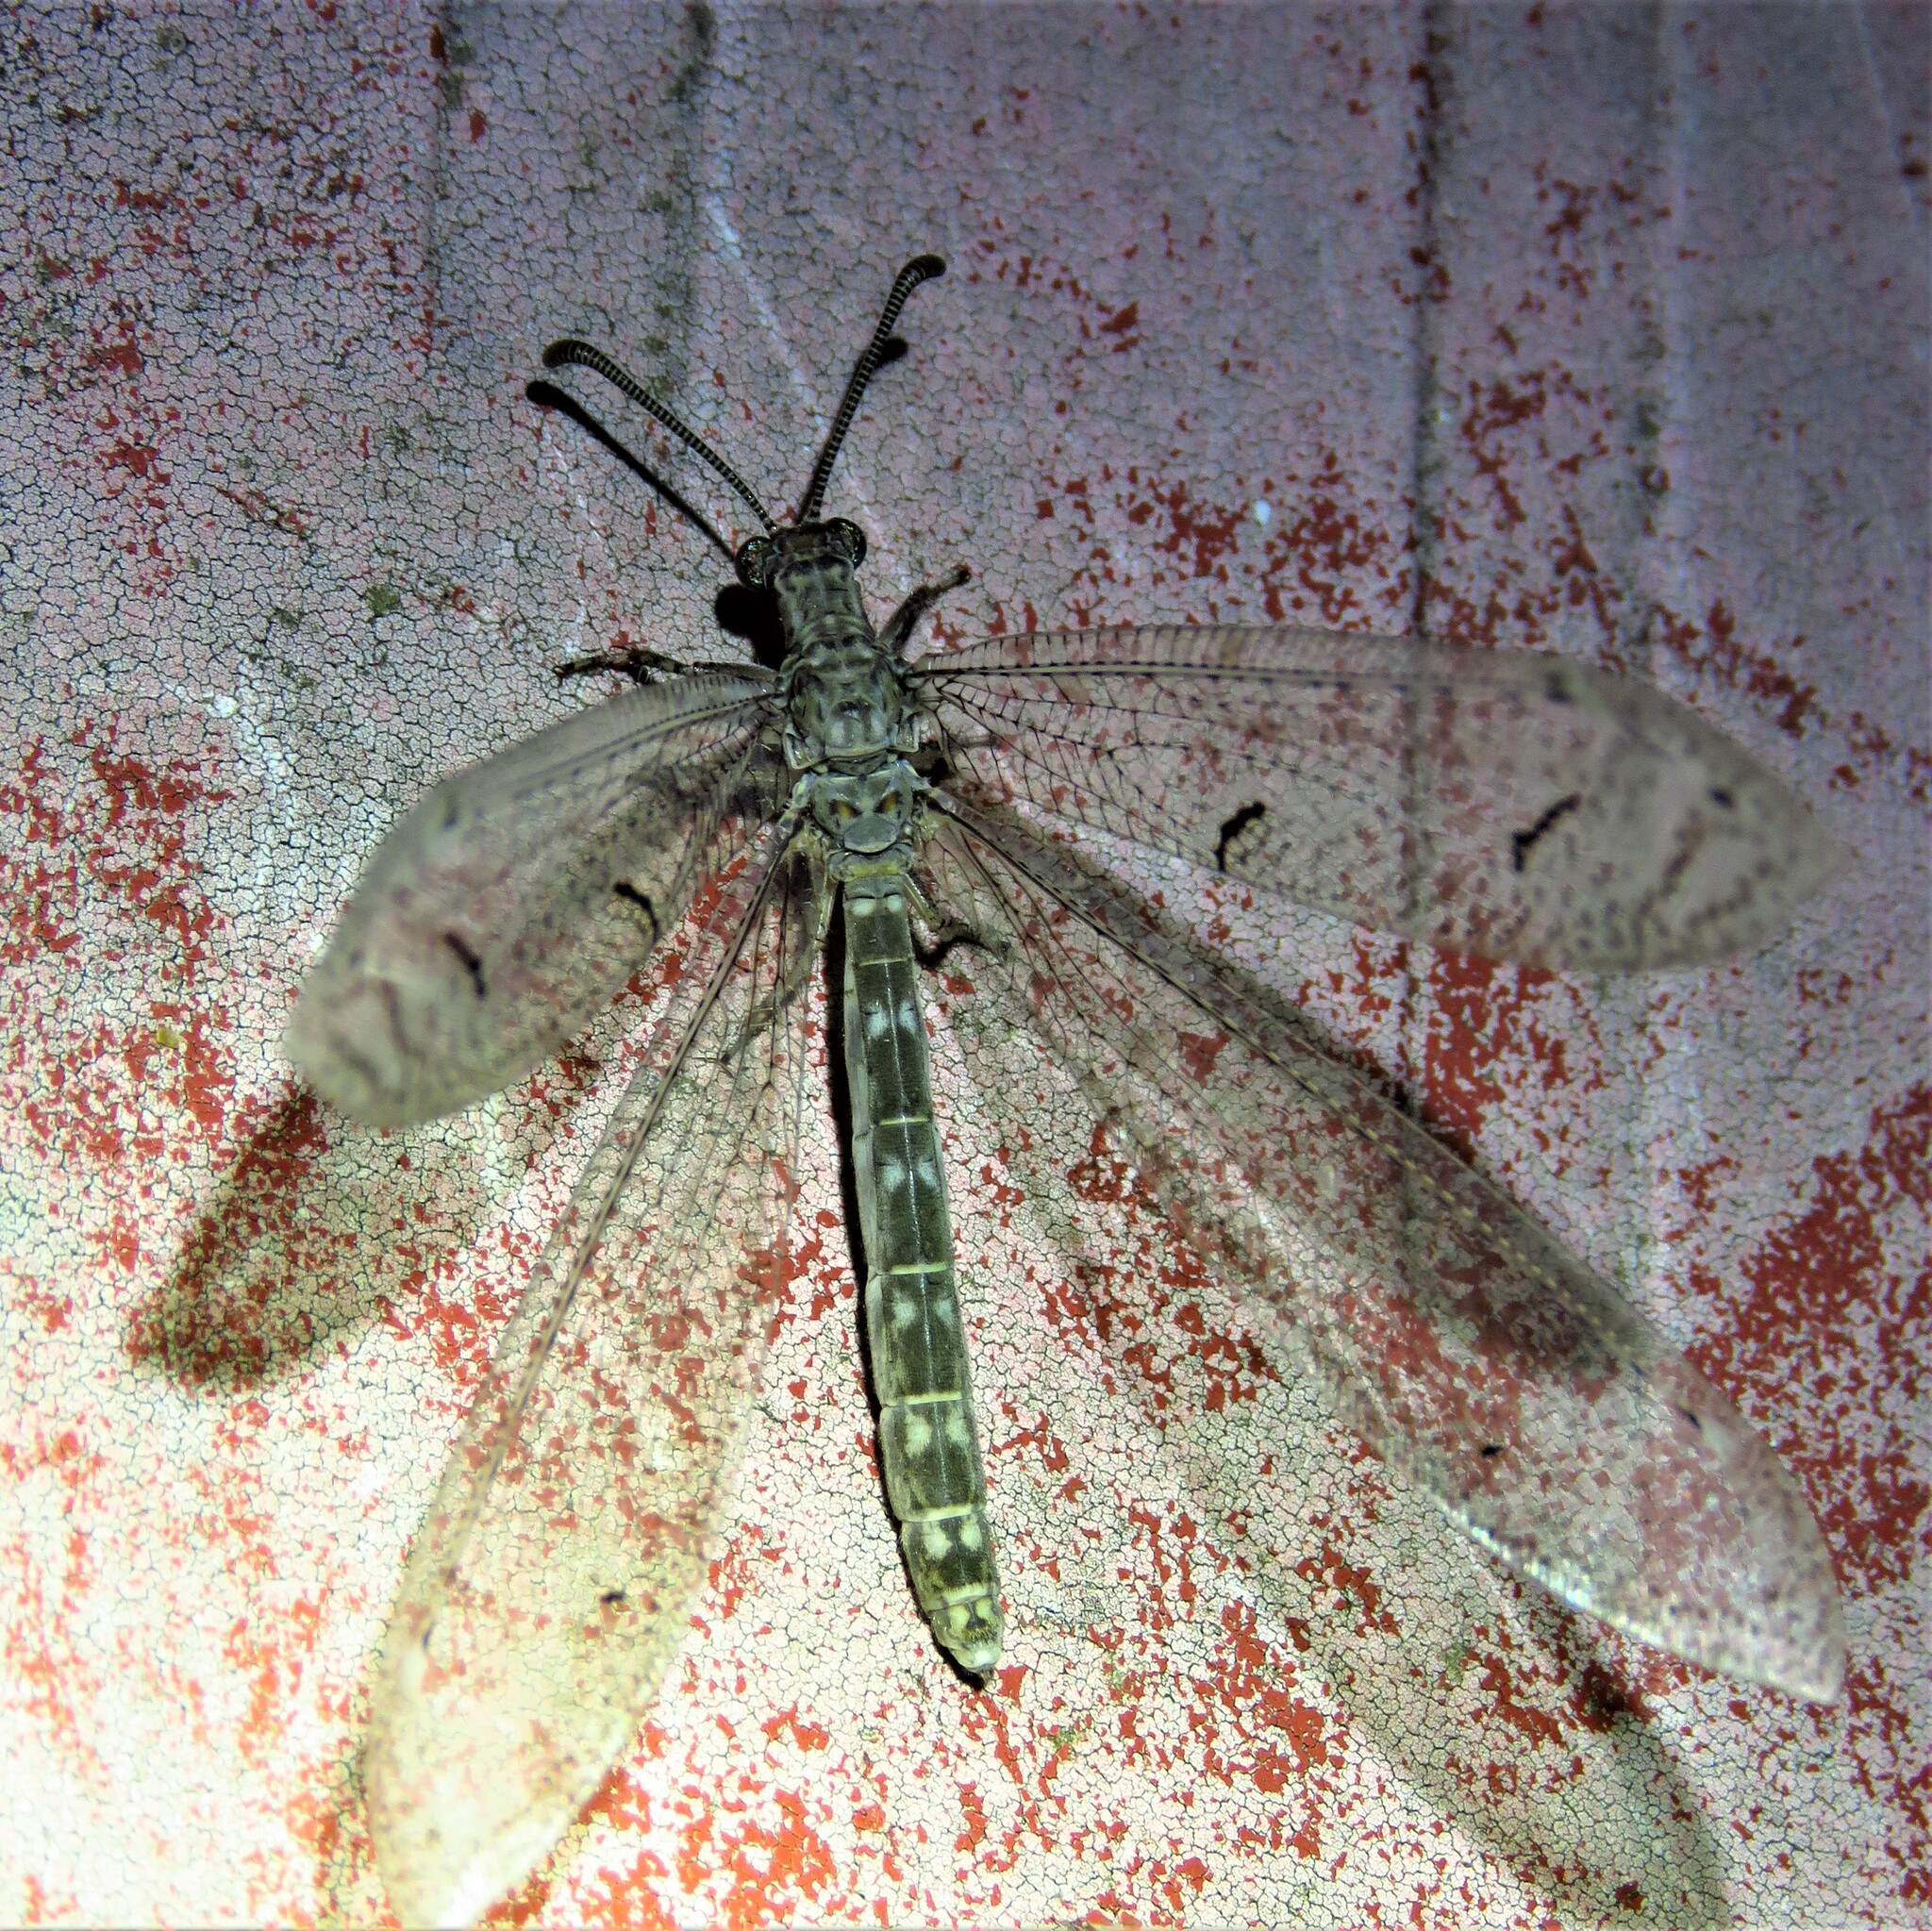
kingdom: Animalia
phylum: Arthropoda
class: Insecta
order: Neuroptera
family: Myrmeleontidae
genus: Euptilon
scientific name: Euptilon ornatum
